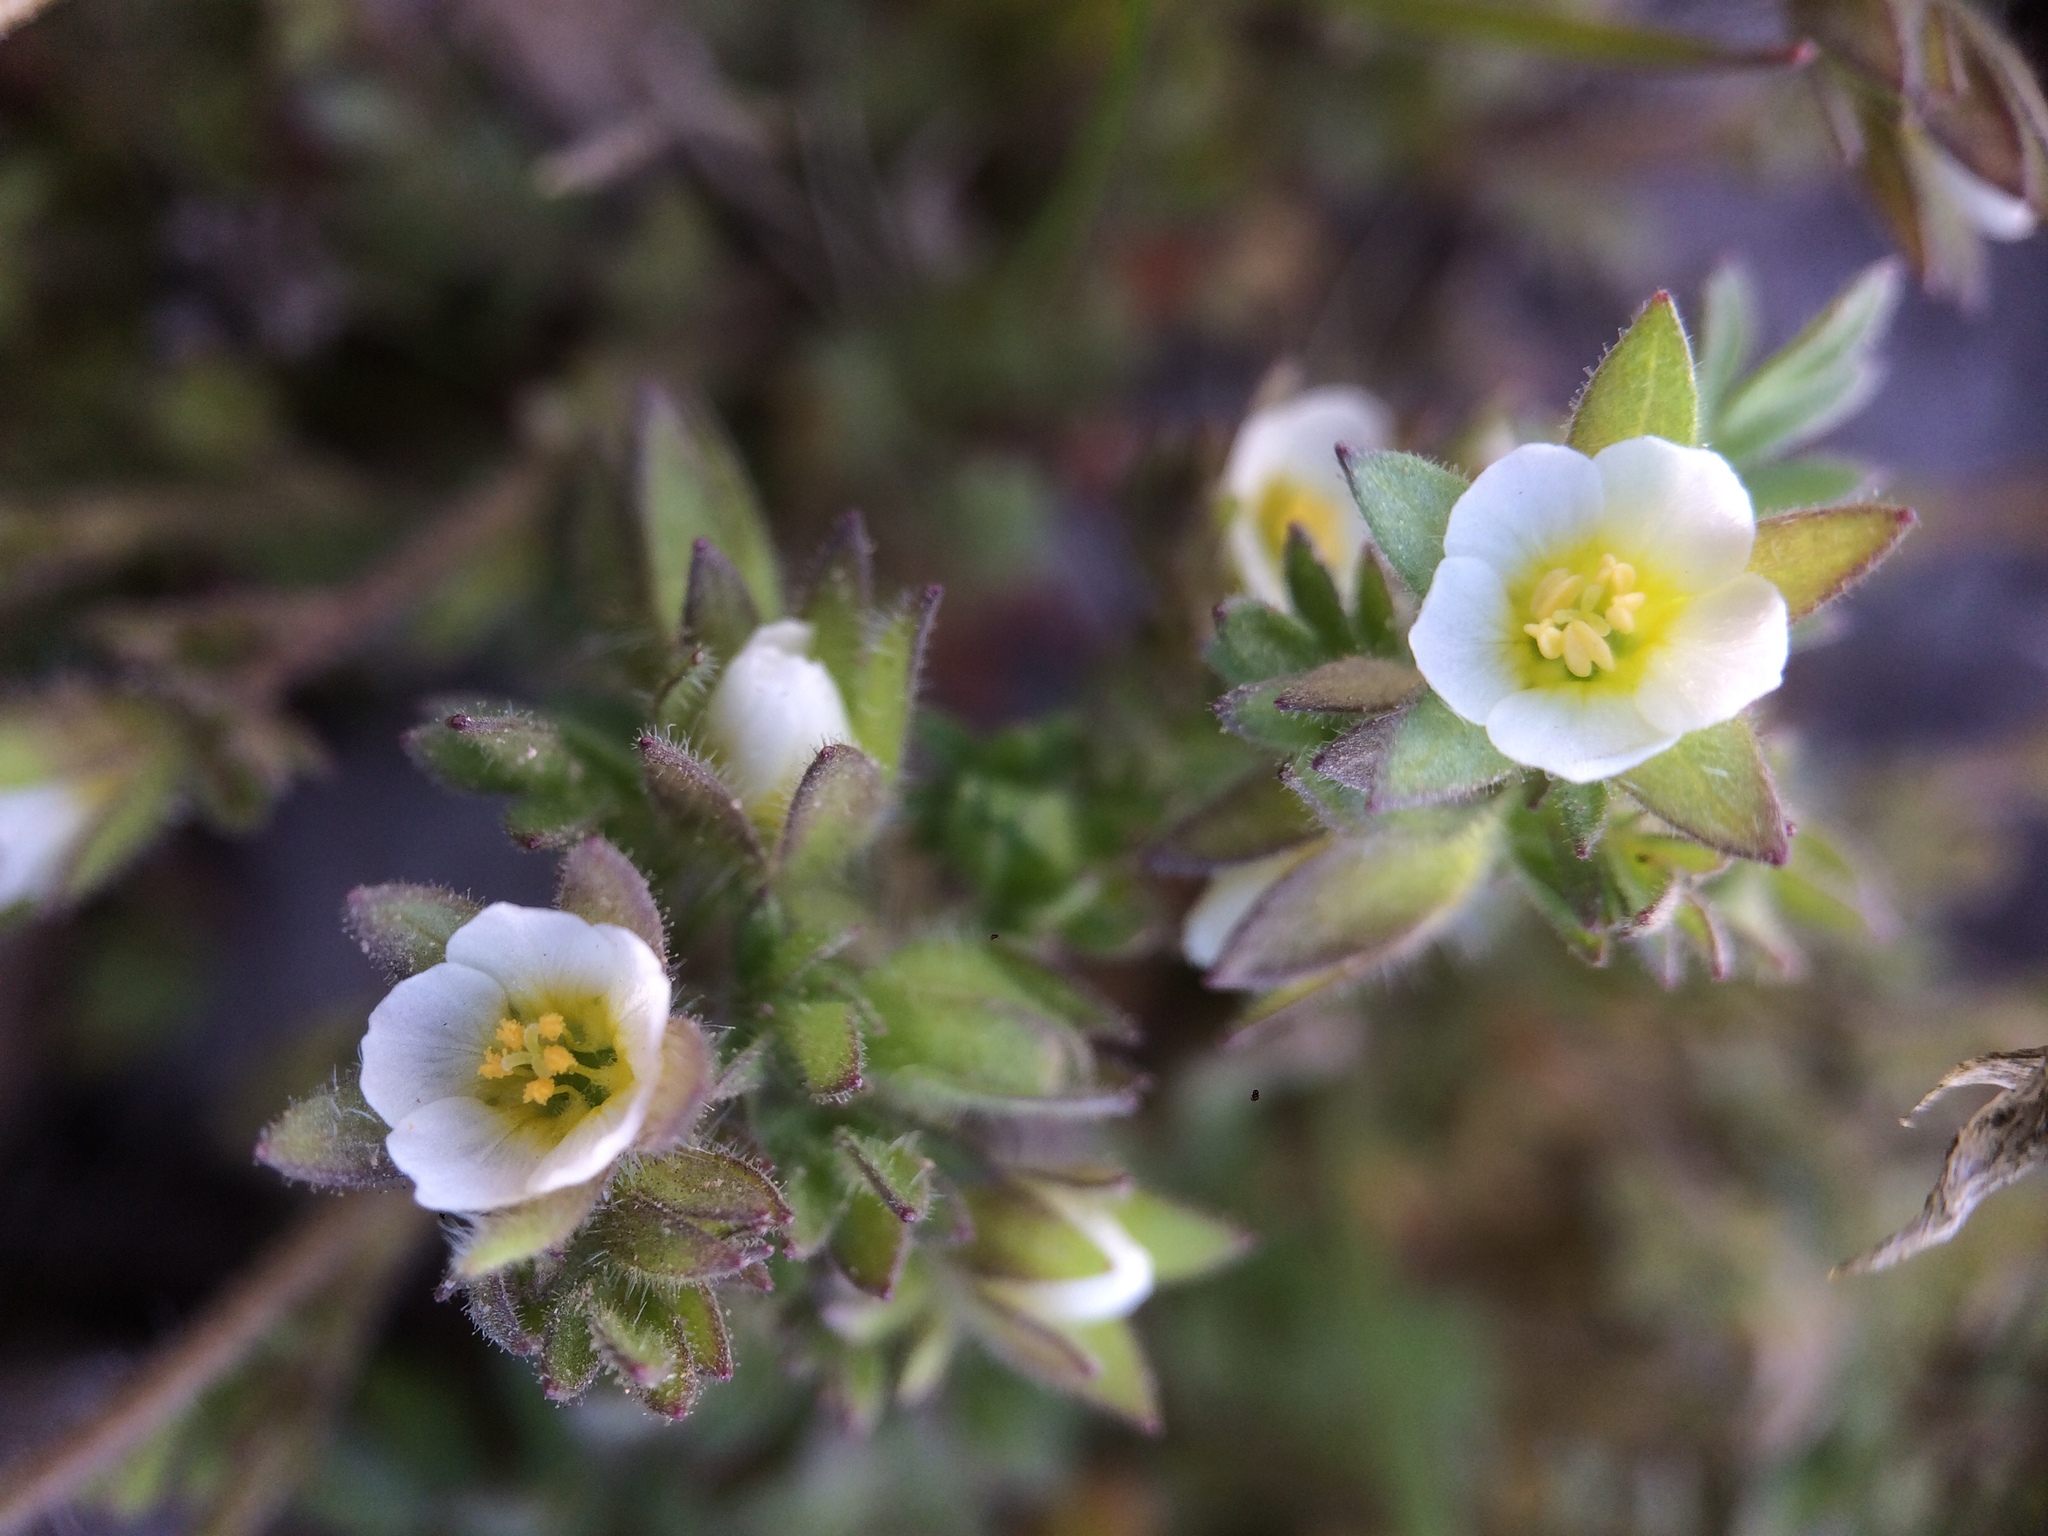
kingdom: Plantae
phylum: Tracheophyta
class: Magnoliopsida
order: Ericales
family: Polemoniaceae
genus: Polemonium
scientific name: Polemonium micranthum
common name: Annual jacob's-ladder
